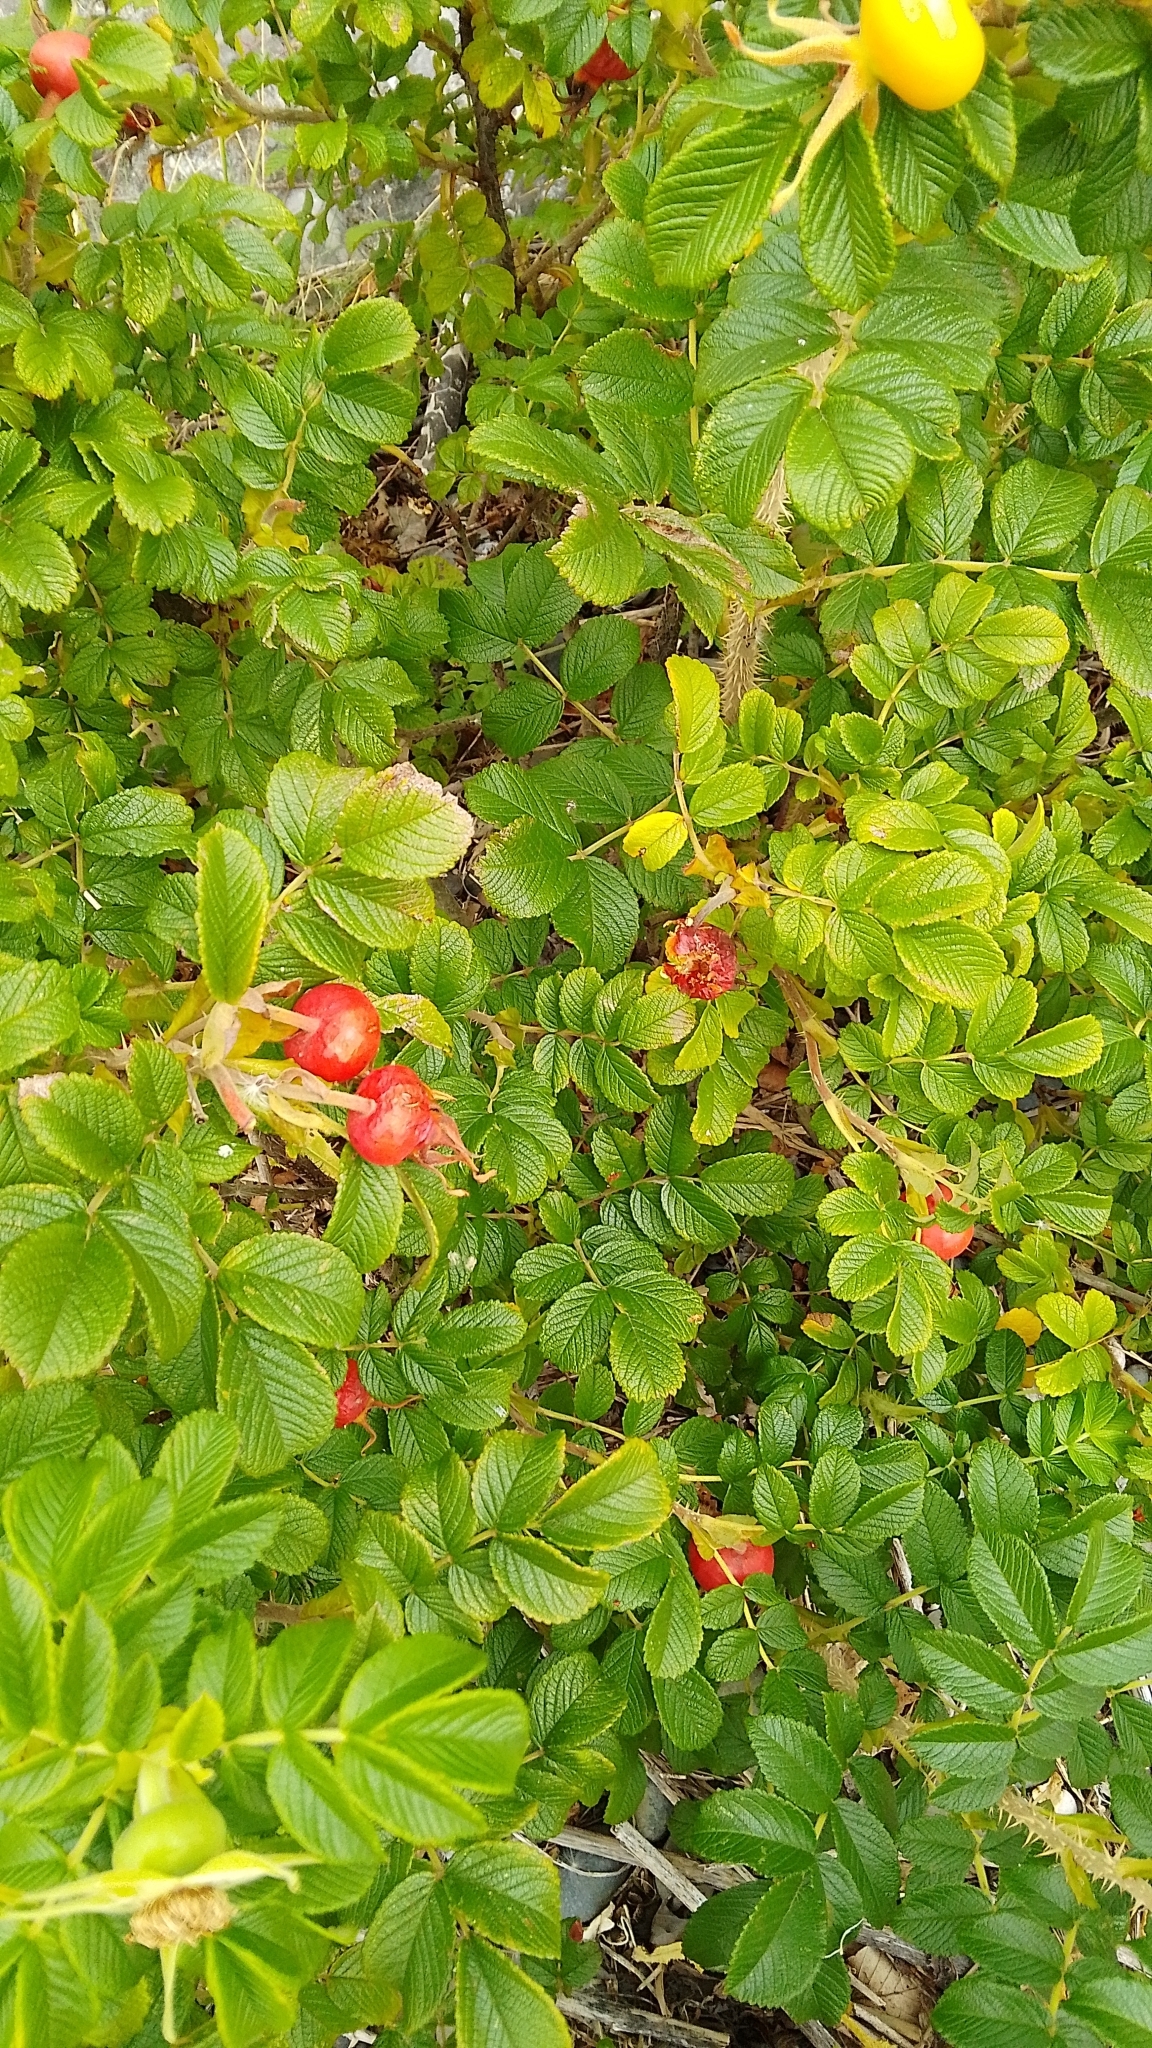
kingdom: Plantae
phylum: Tracheophyta
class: Magnoliopsida
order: Rosales
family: Rosaceae
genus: Rosa
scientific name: Rosa rugosa
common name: Japanese rose
